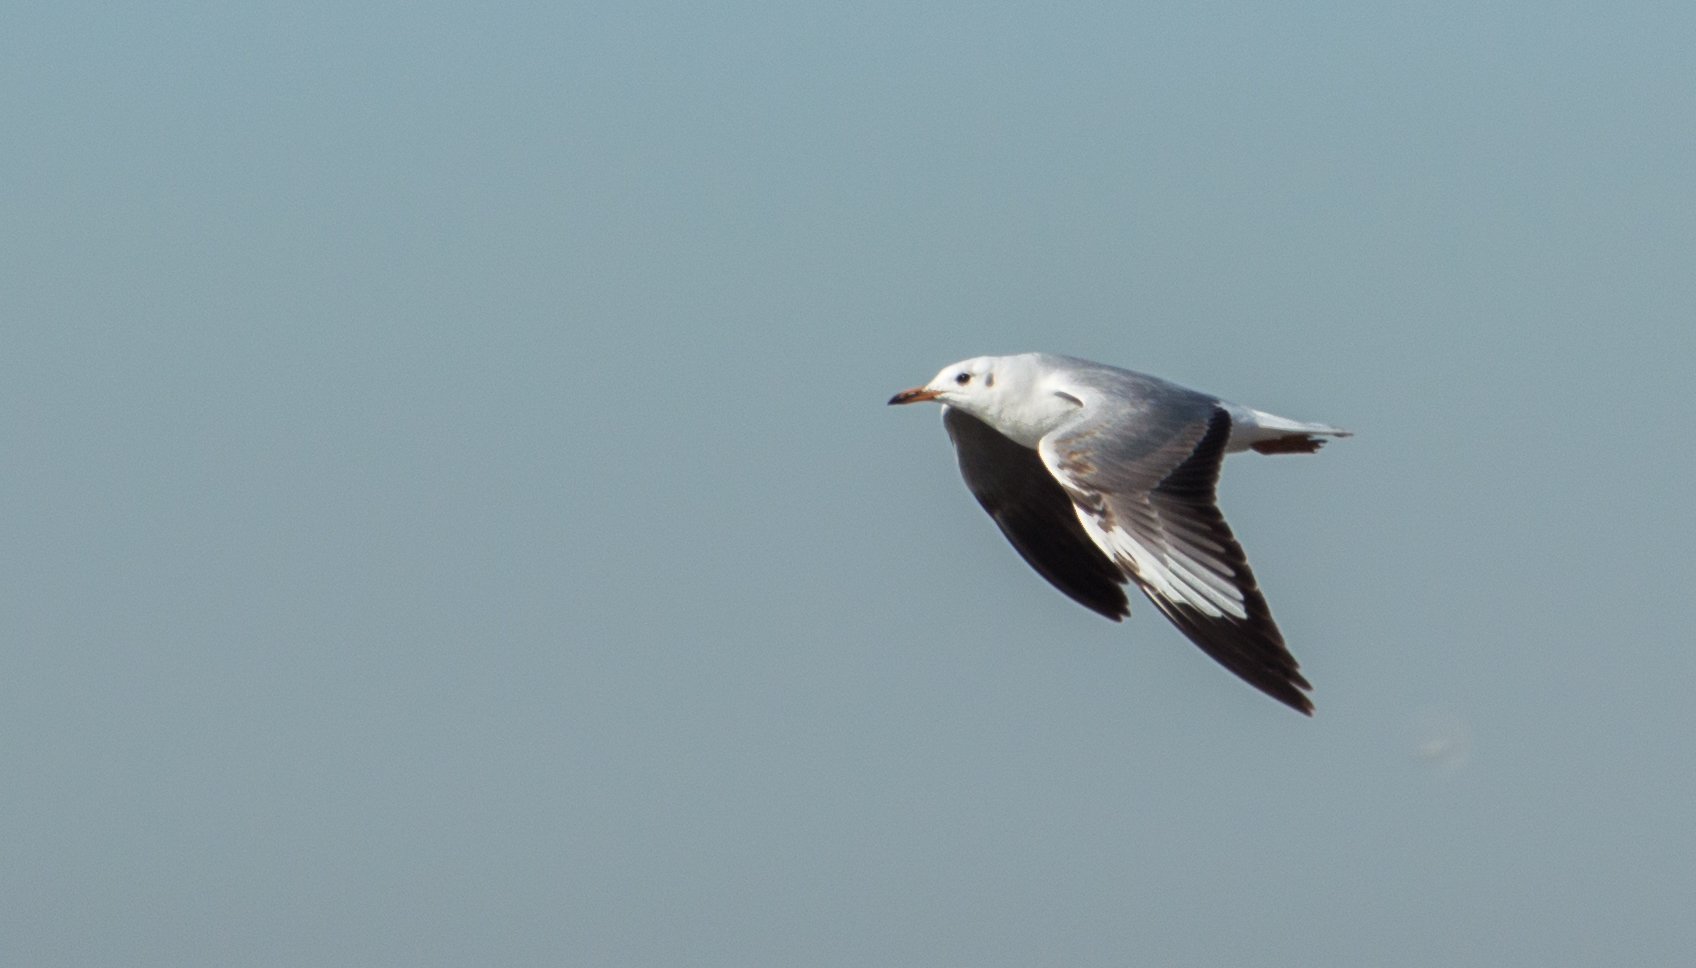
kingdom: Animalia
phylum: Chordata
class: Aves
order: Charadriiformes
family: Laridae
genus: Chroicocephalus
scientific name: Chroicocephalus maculipennis
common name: Brown-hooded gull
